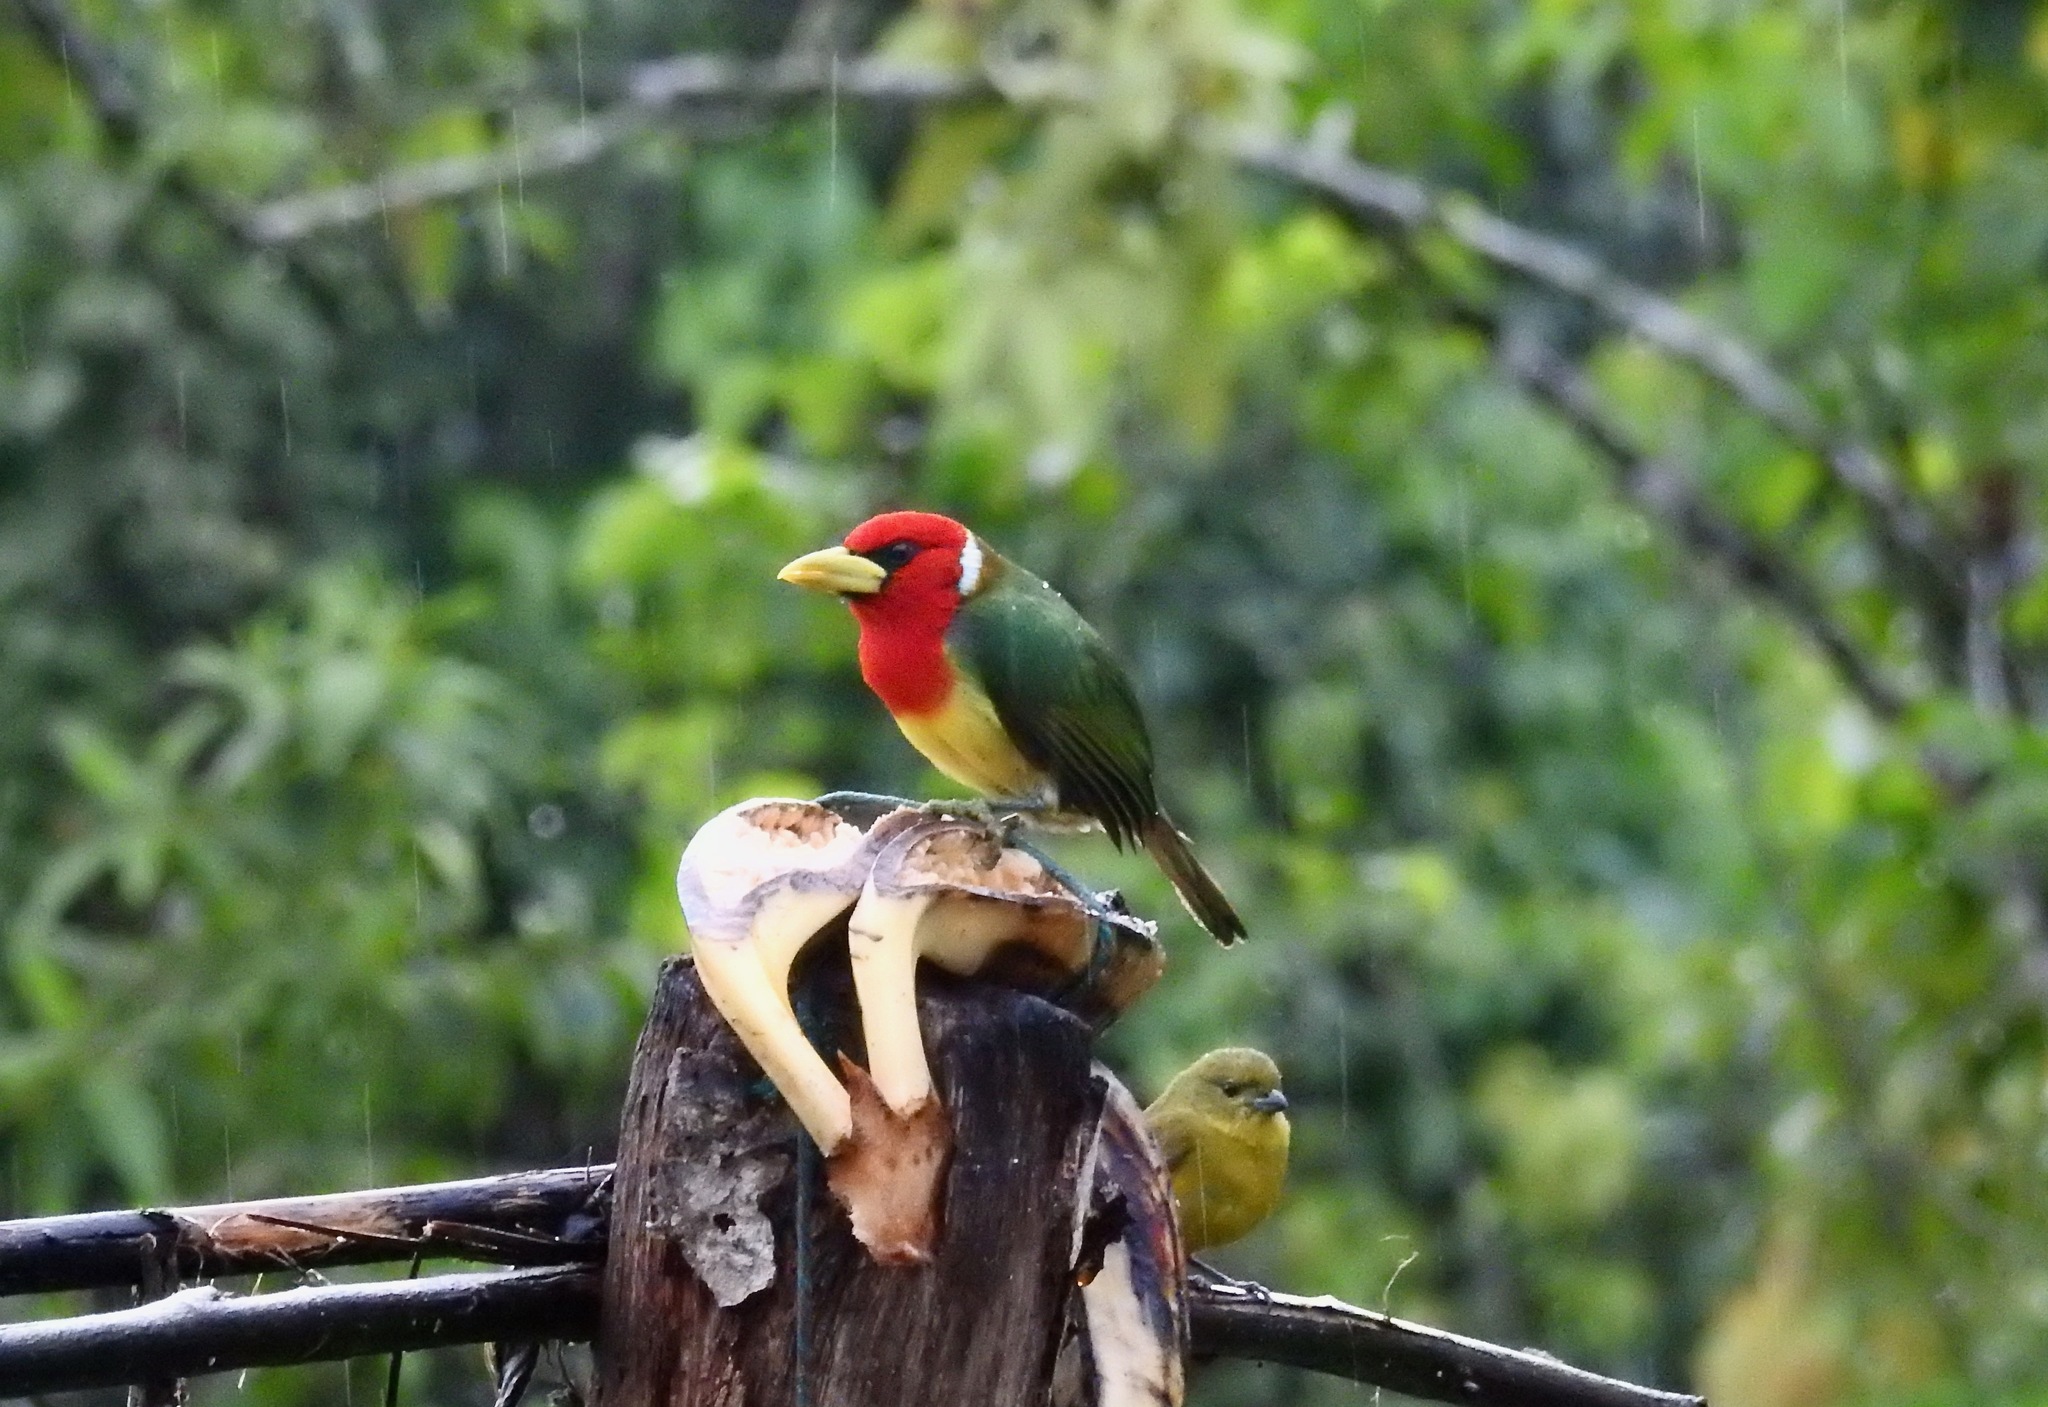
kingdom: Animalia
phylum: Chordata
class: Aves
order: Piciformes
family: Capitonidae
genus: Eubucco
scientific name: Eubucco bourcierii
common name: Red-headed barbet
